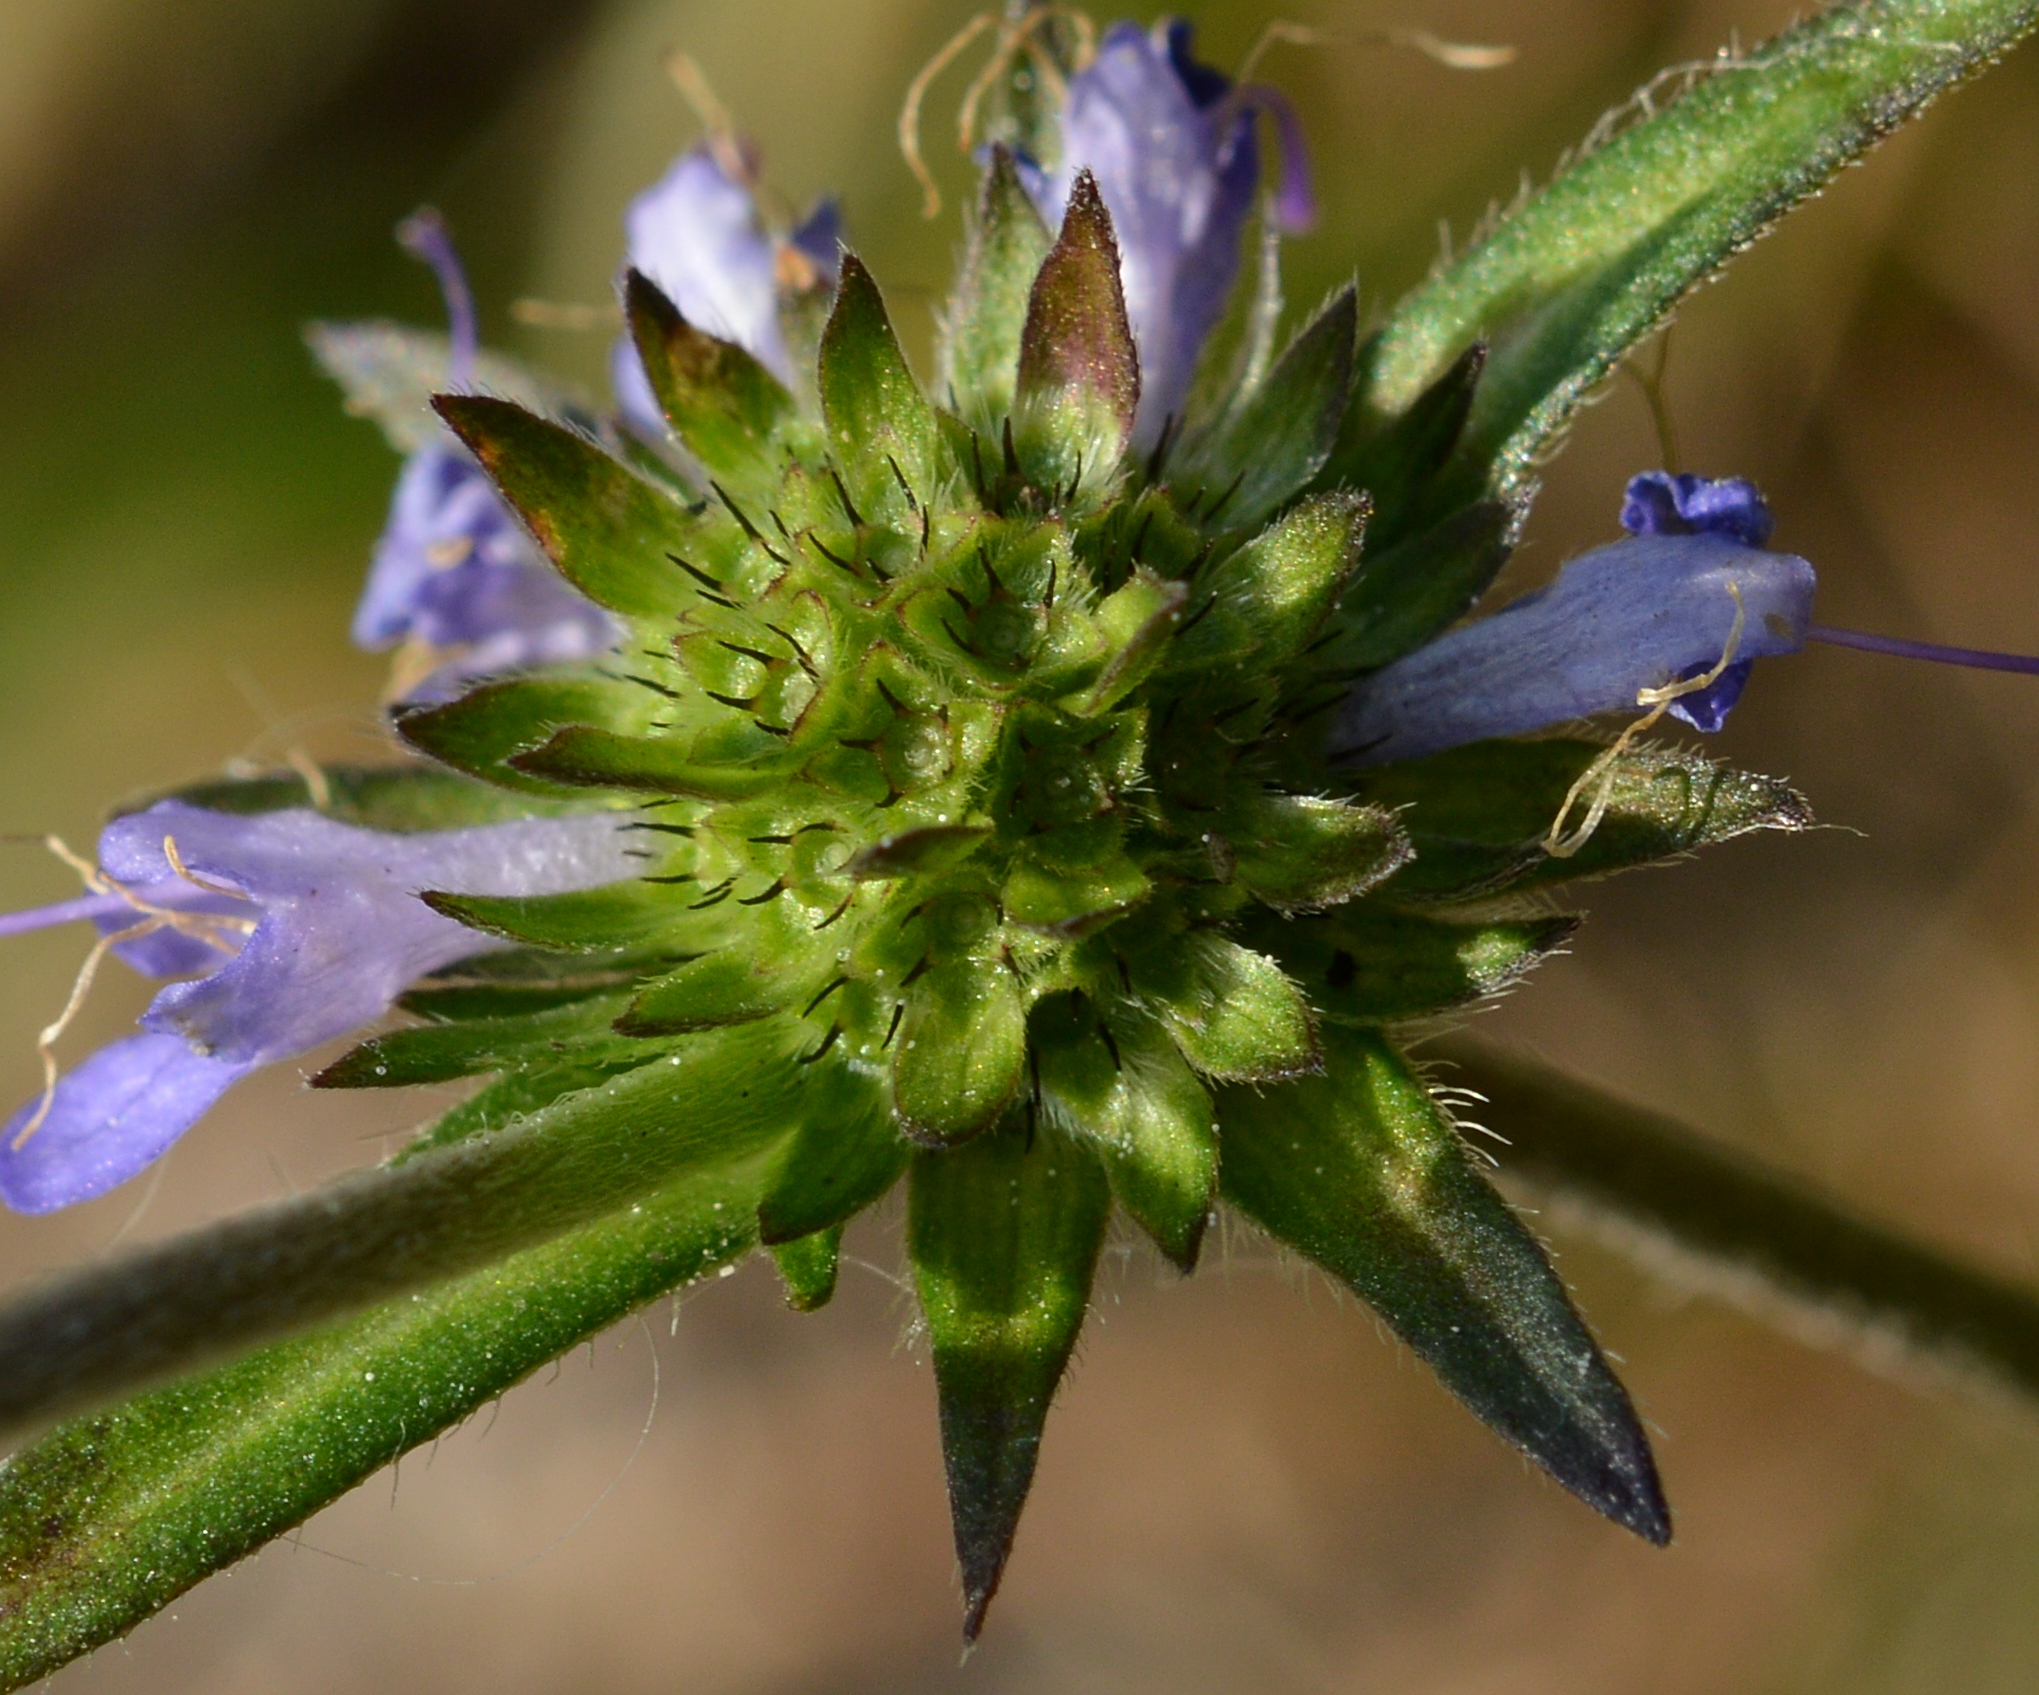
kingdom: Plantae
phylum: Tracheophyta
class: Magnoliopsida
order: Dipsacales
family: Caprifoliaceae
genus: Succisa
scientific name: Succisa pratensis
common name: Devil's-bit
